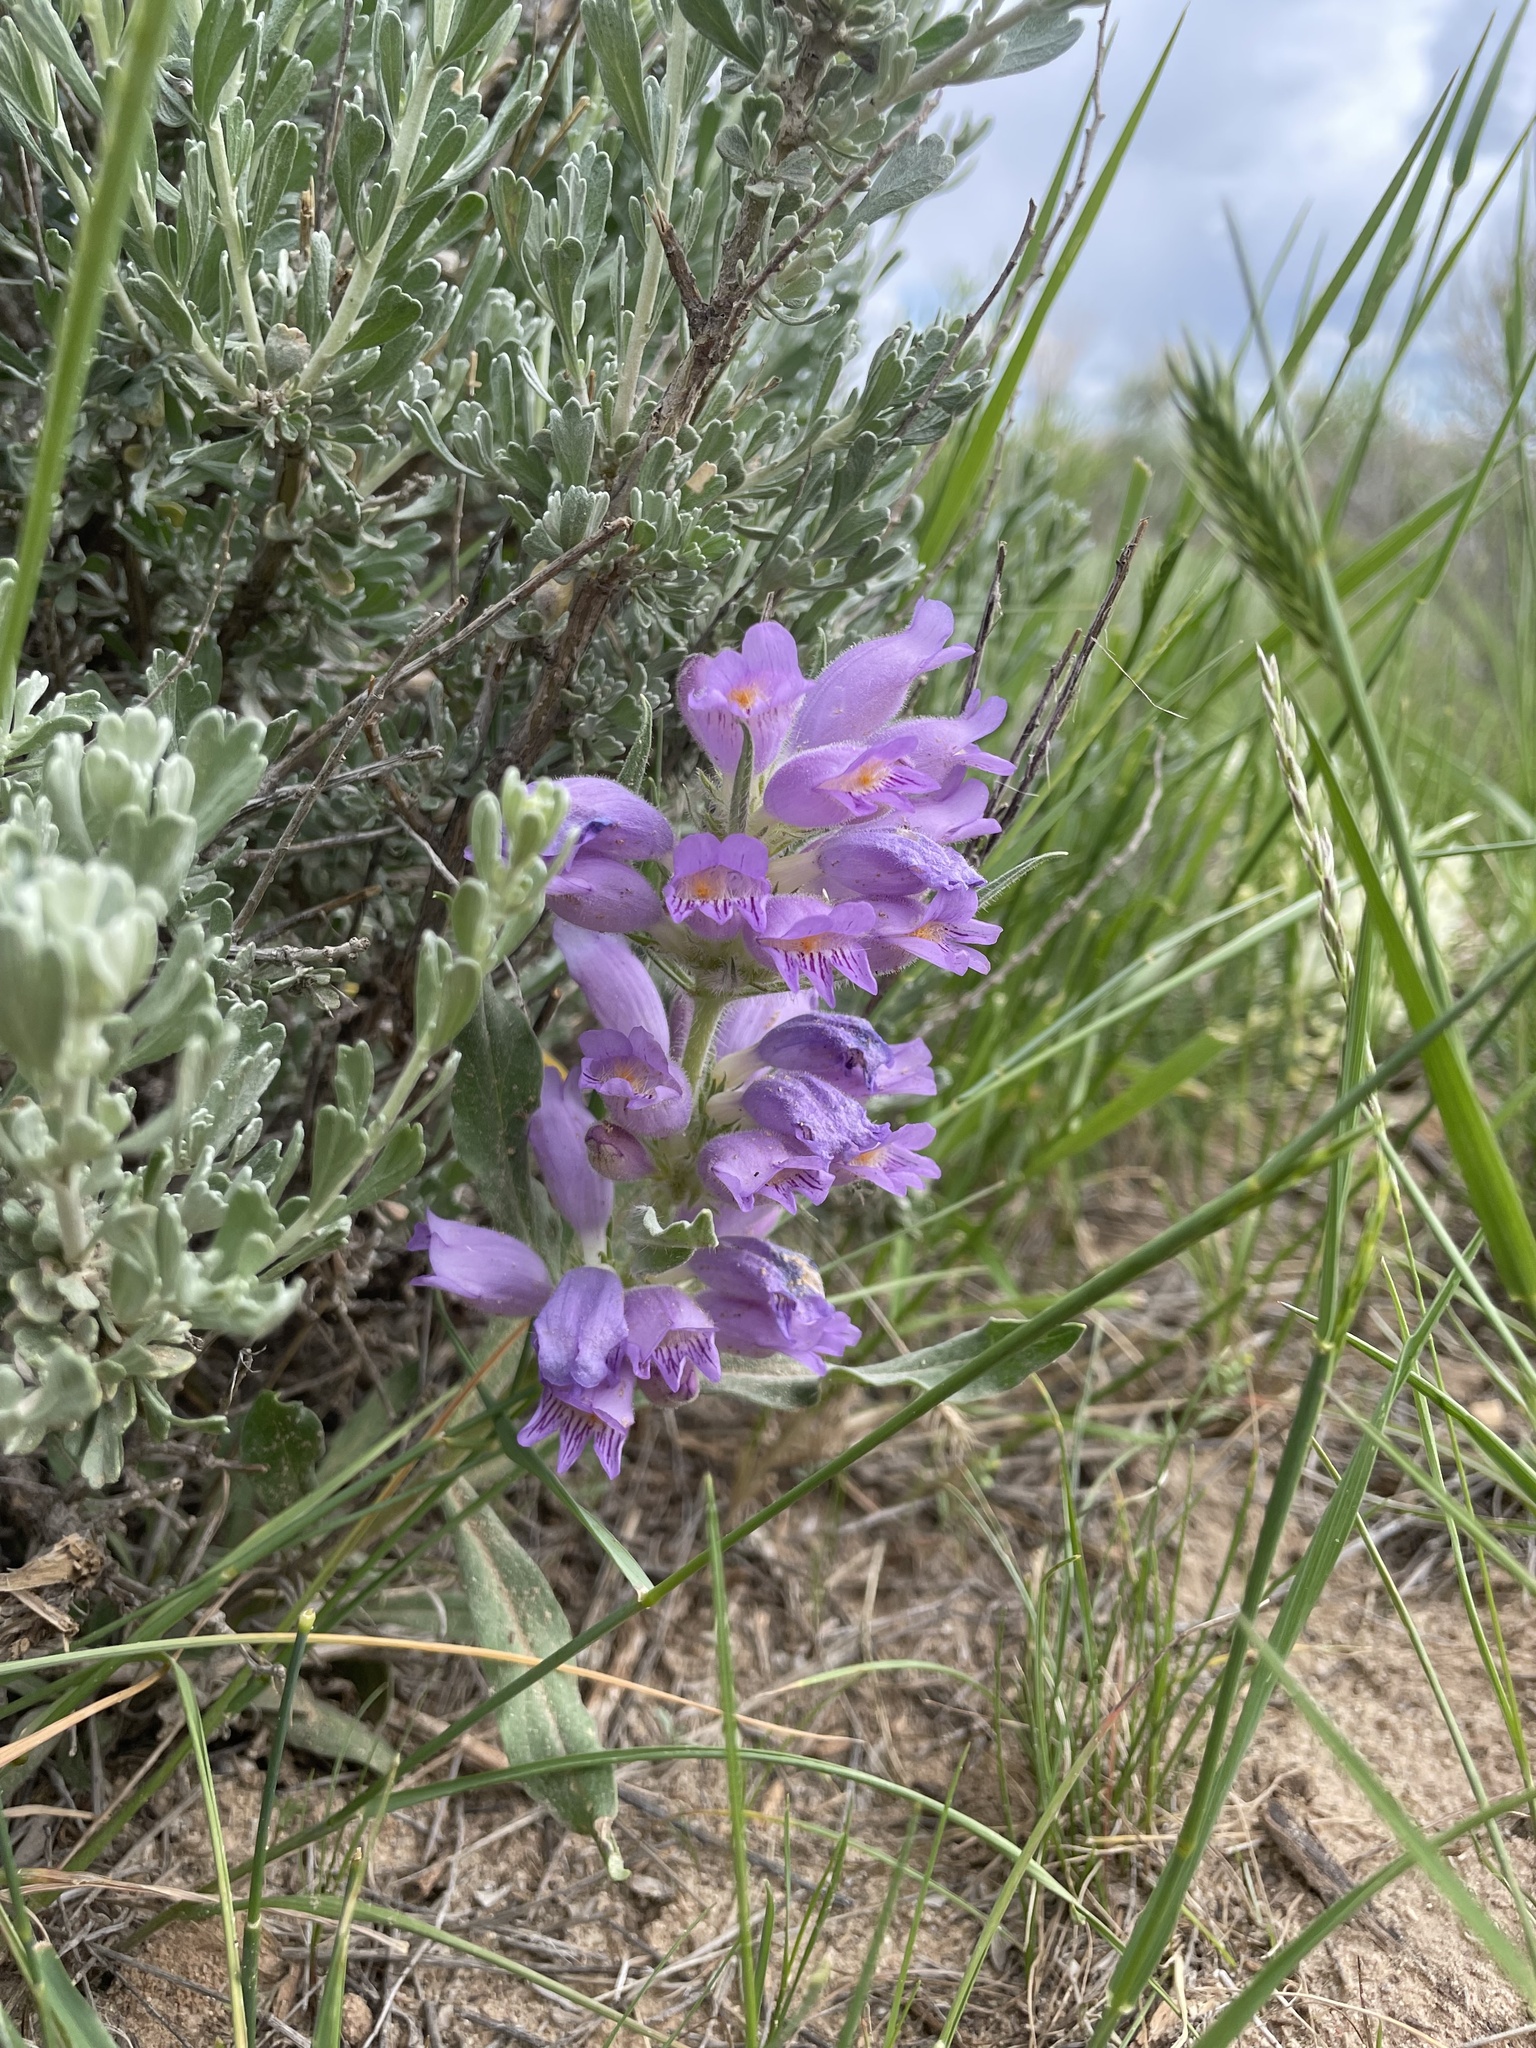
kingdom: Plantae
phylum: Tracheophyta
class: Magnoliopsida
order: Lamiales
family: Plantaginaceae
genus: Penstemon
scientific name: Penstemon eriantherus
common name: Crested beardtongue
